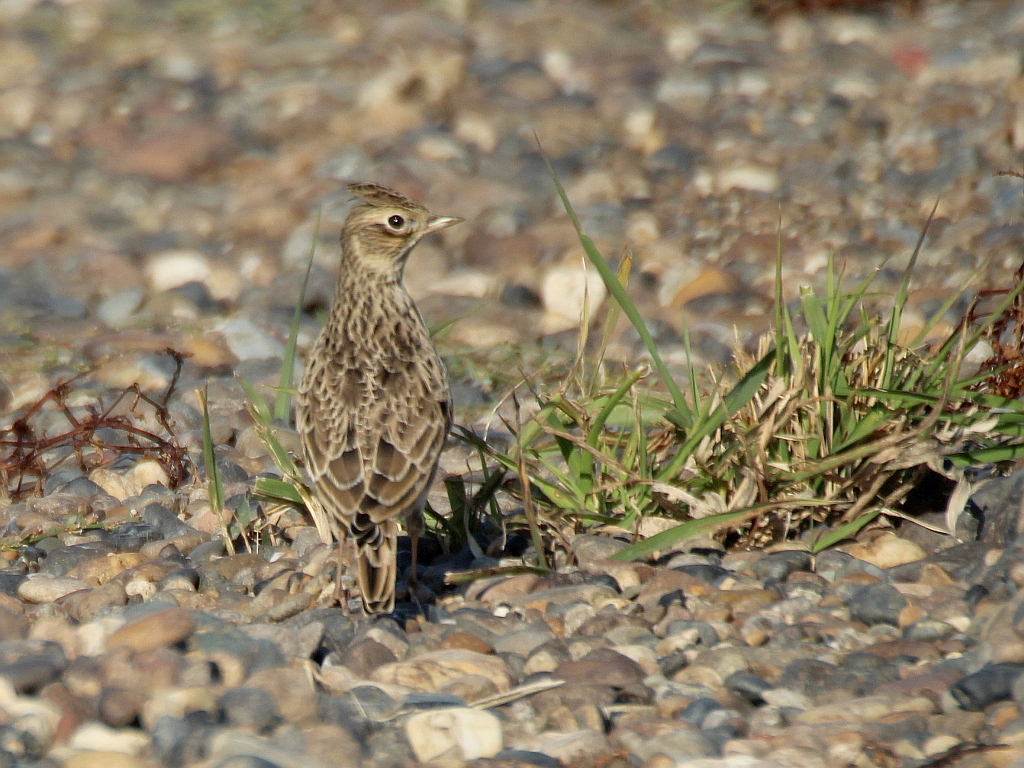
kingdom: Animalia
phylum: Chordata
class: Aves
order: Passeriformes
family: Alaudidae
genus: Alauda
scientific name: Alauda arvensis
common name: Eurasian skylark
